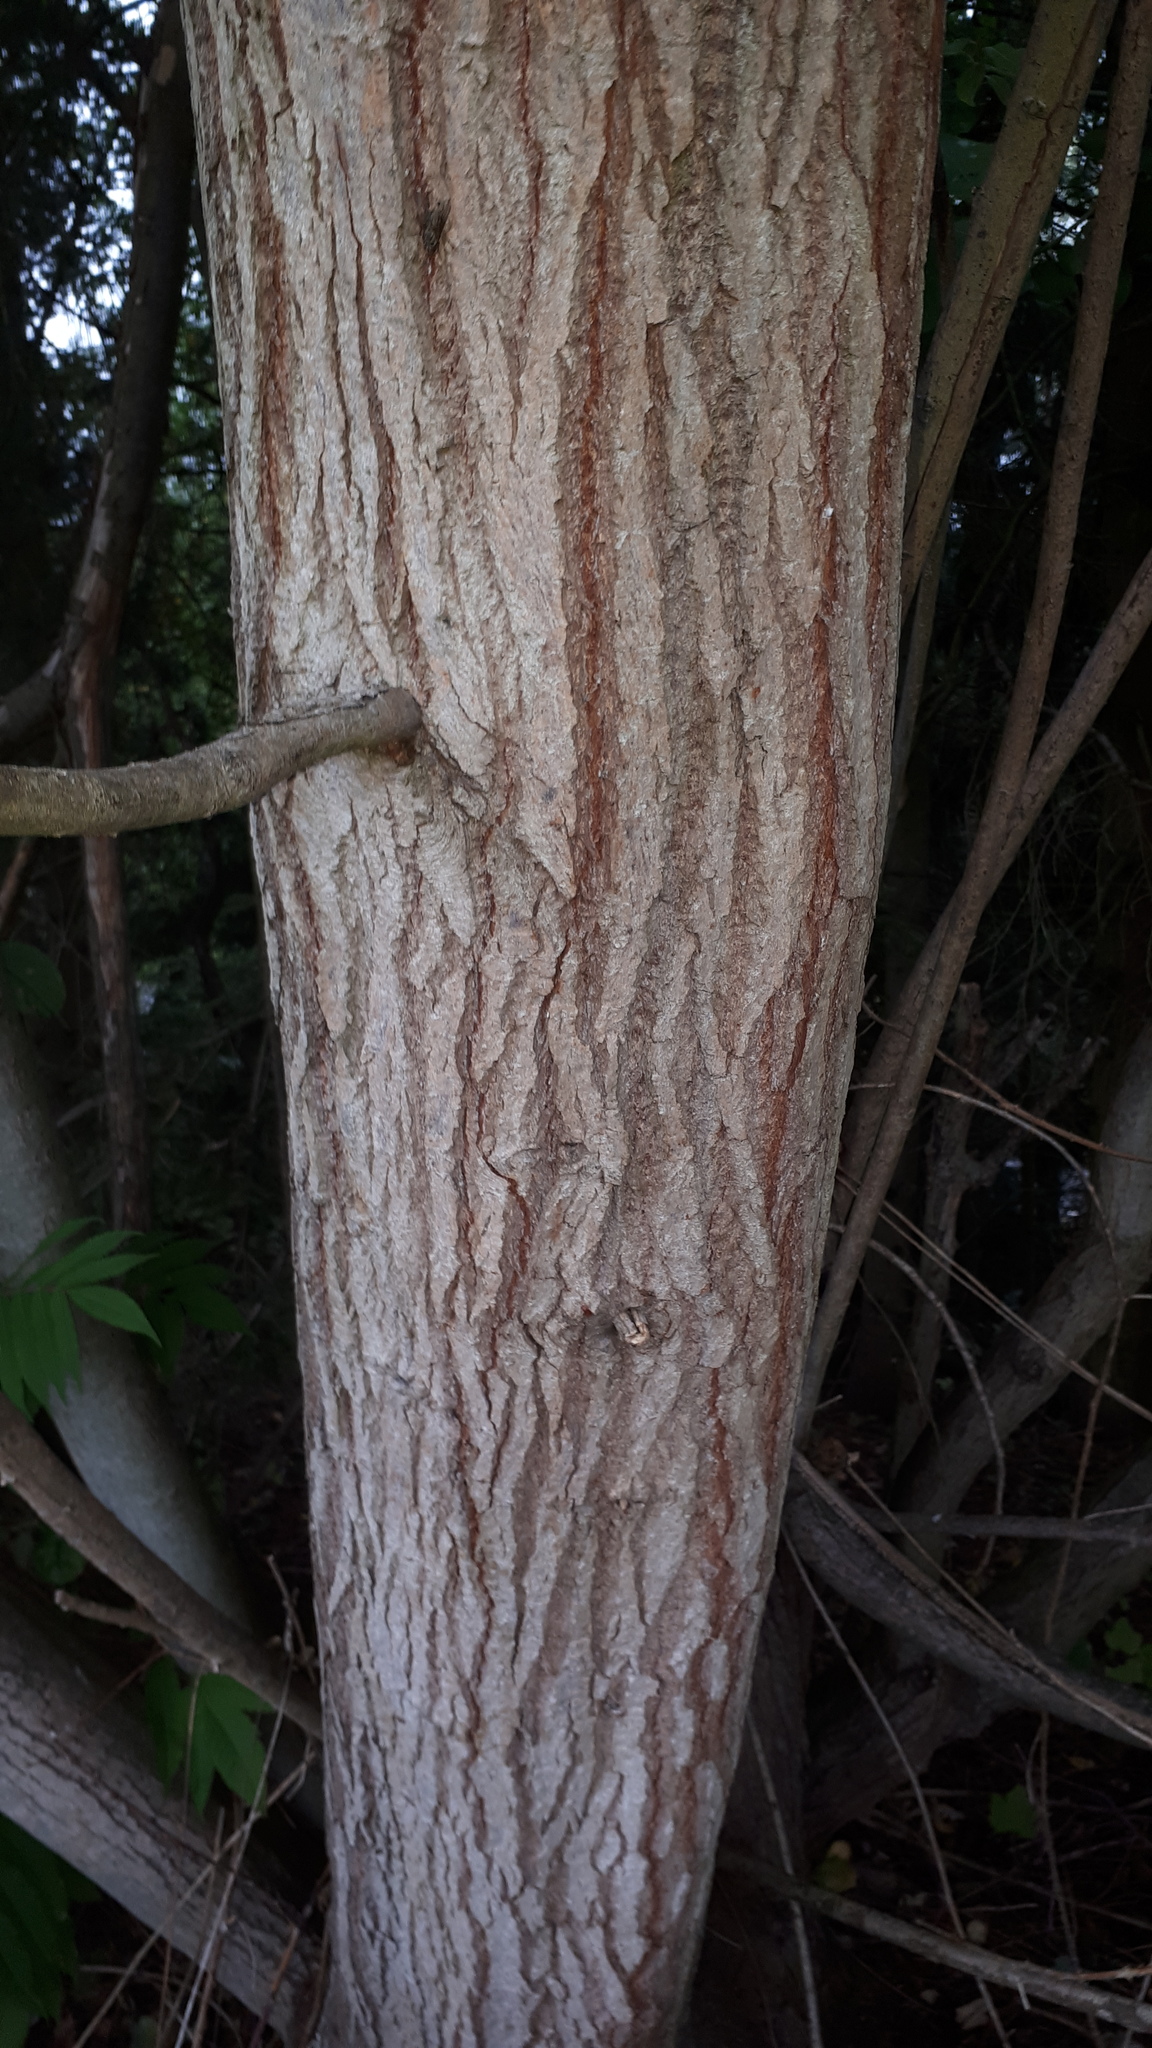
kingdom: Plantae
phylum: Tracheophyta
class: Magnoliopsida
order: Malpighiales
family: Salicaceae
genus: Salix
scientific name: Salix caprea
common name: Goat willow
